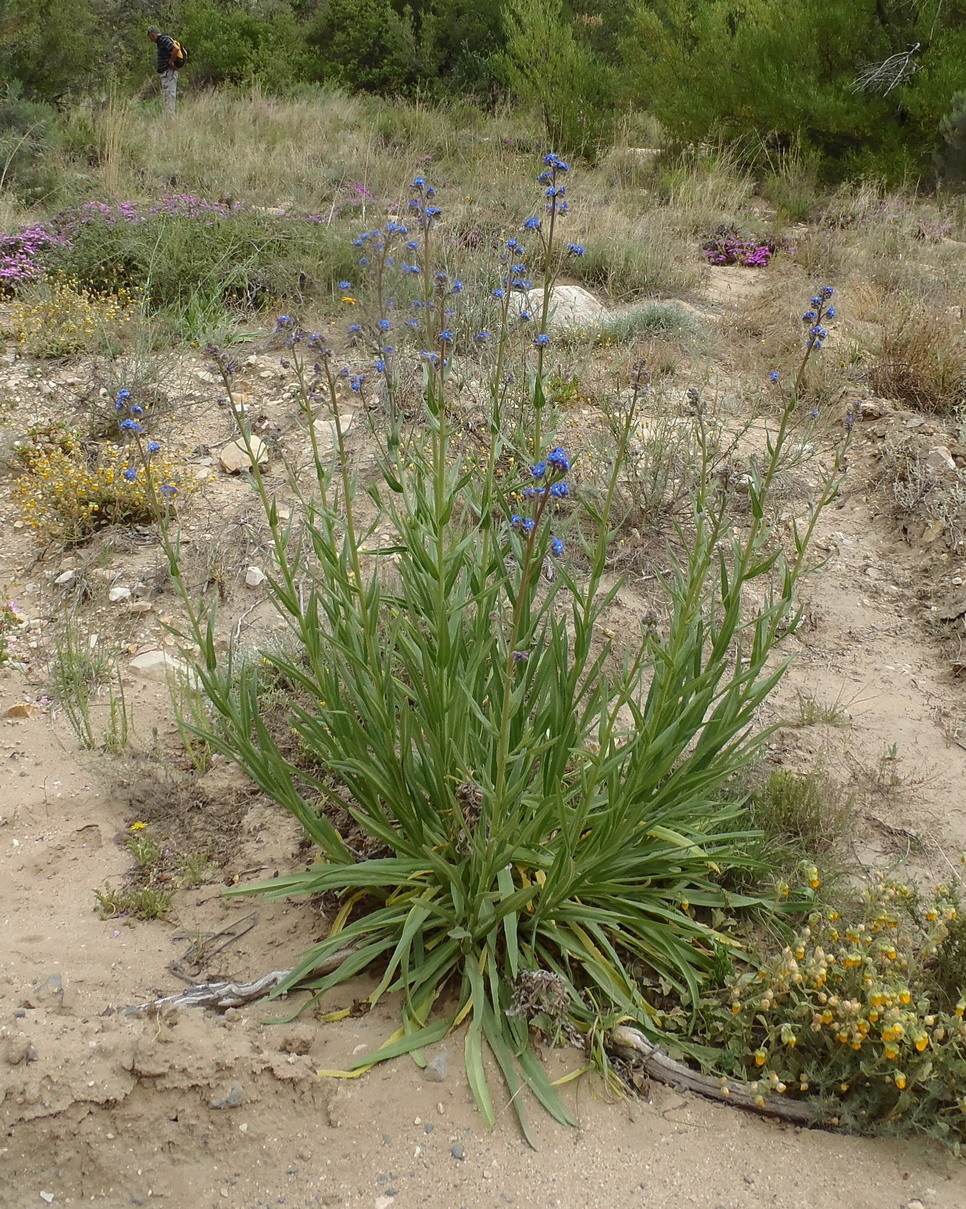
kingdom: Plantae
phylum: Tracheophyta
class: Magnoliopsida
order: Boraginales
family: Boraginaceae
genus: Anchusa
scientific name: Anchusa capensis
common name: Cape bugloss
